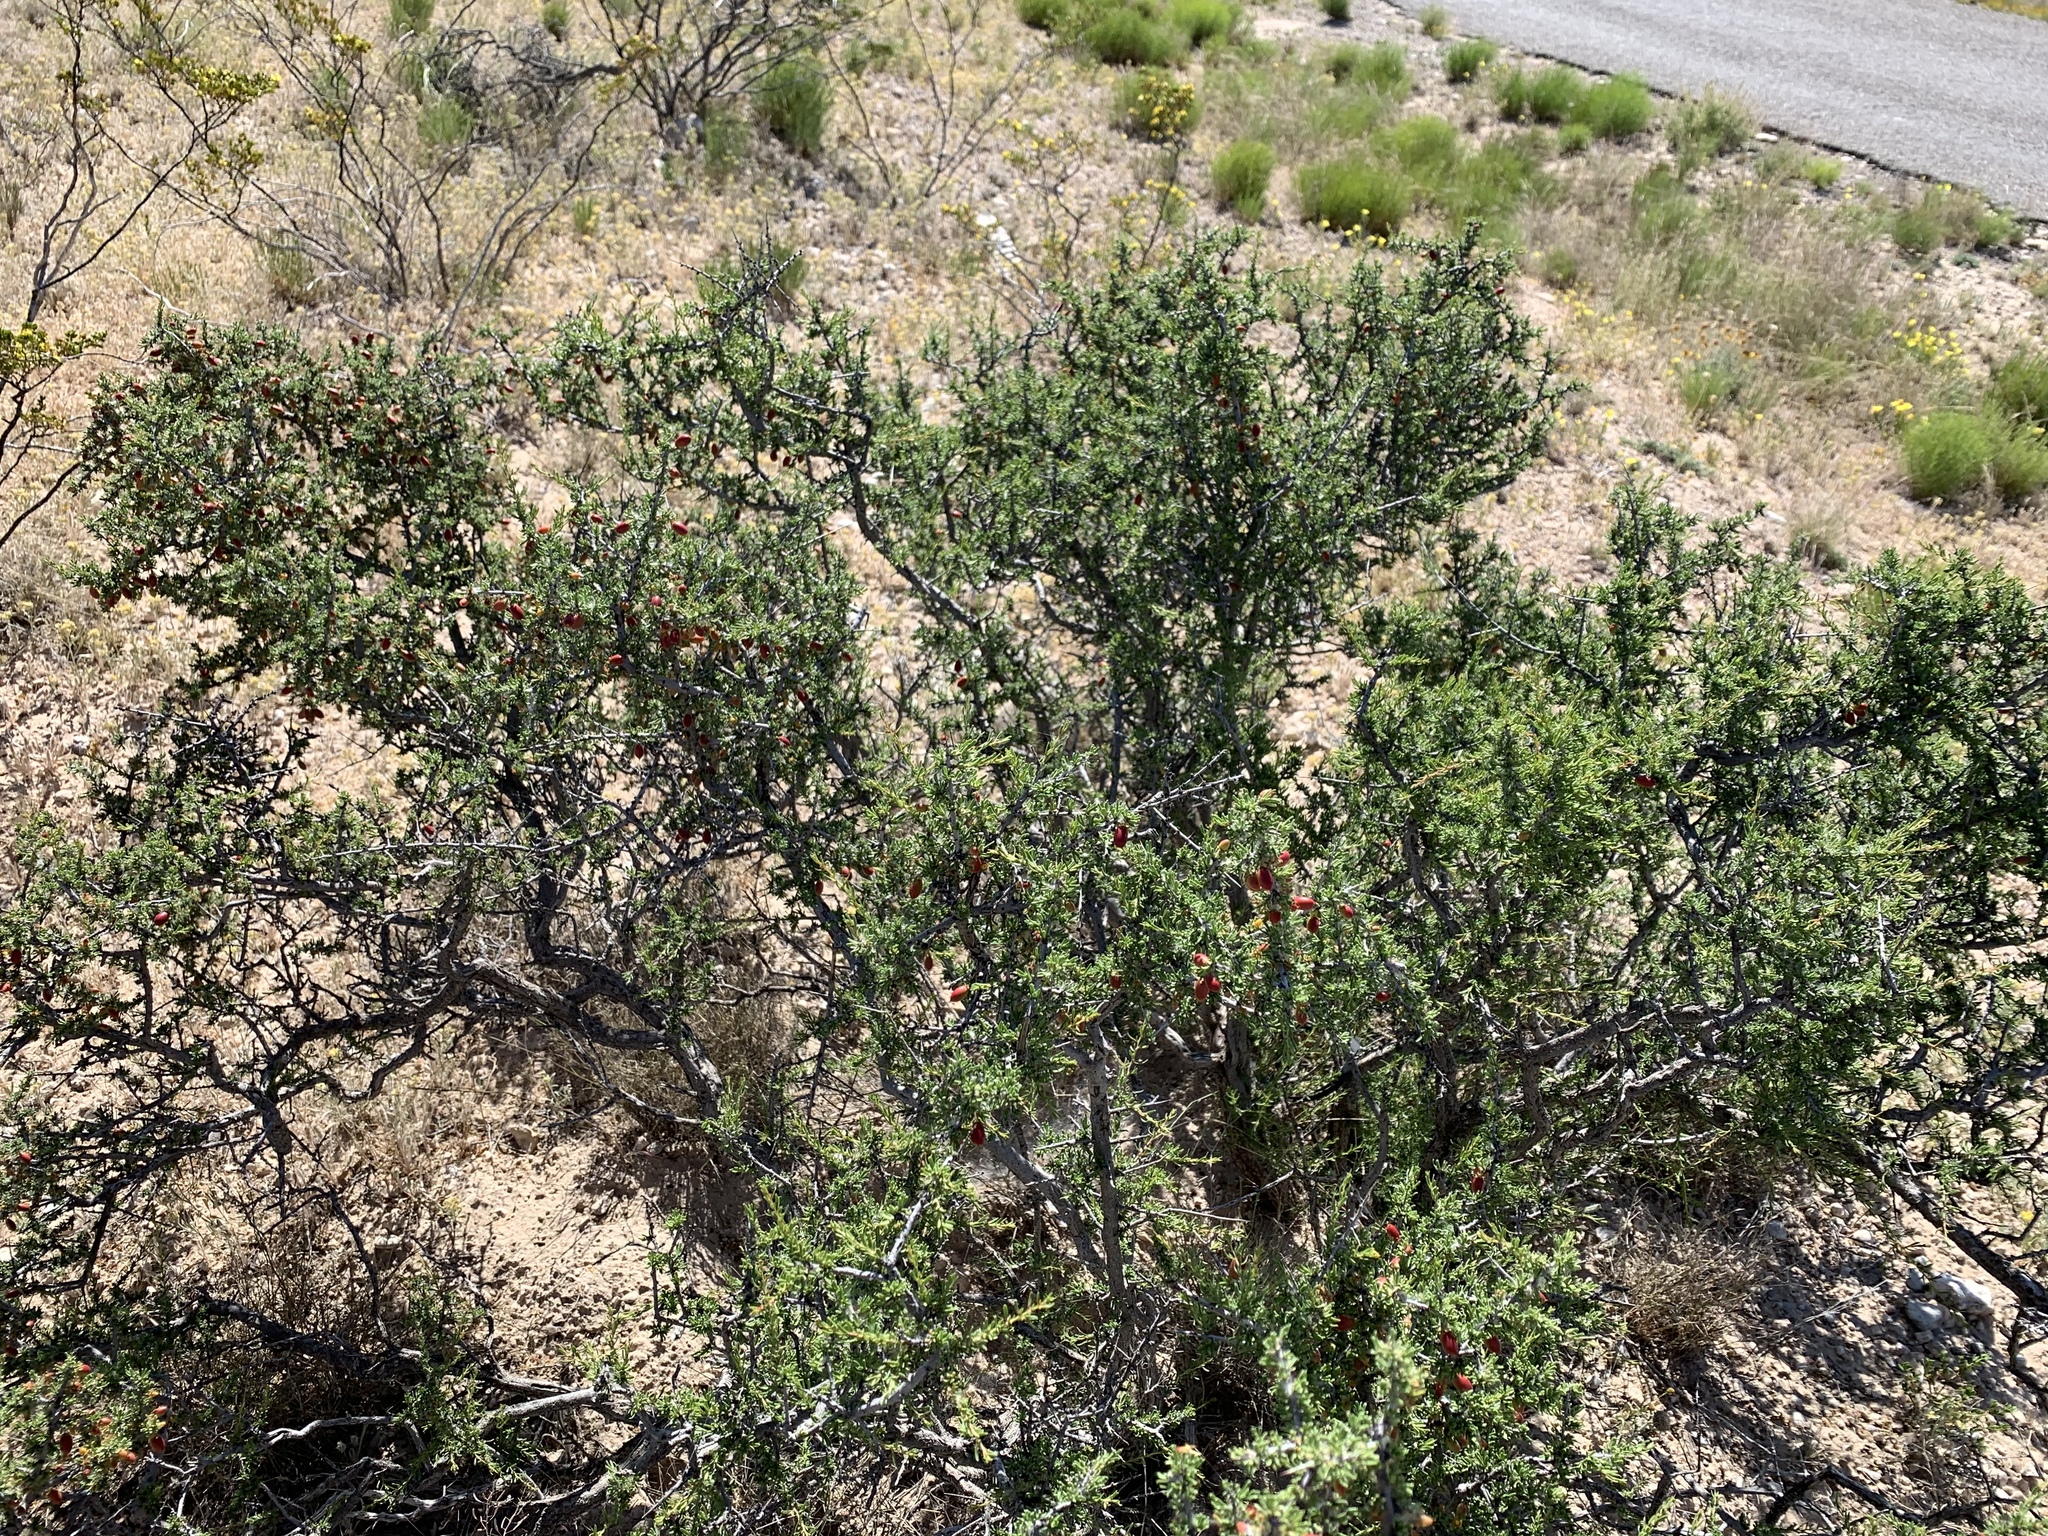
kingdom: Plantae
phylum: Tracheophyta
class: Magnoliopsida
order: Rosales
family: Rhamnaceae
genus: Condalia
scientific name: Condalia ericoides
